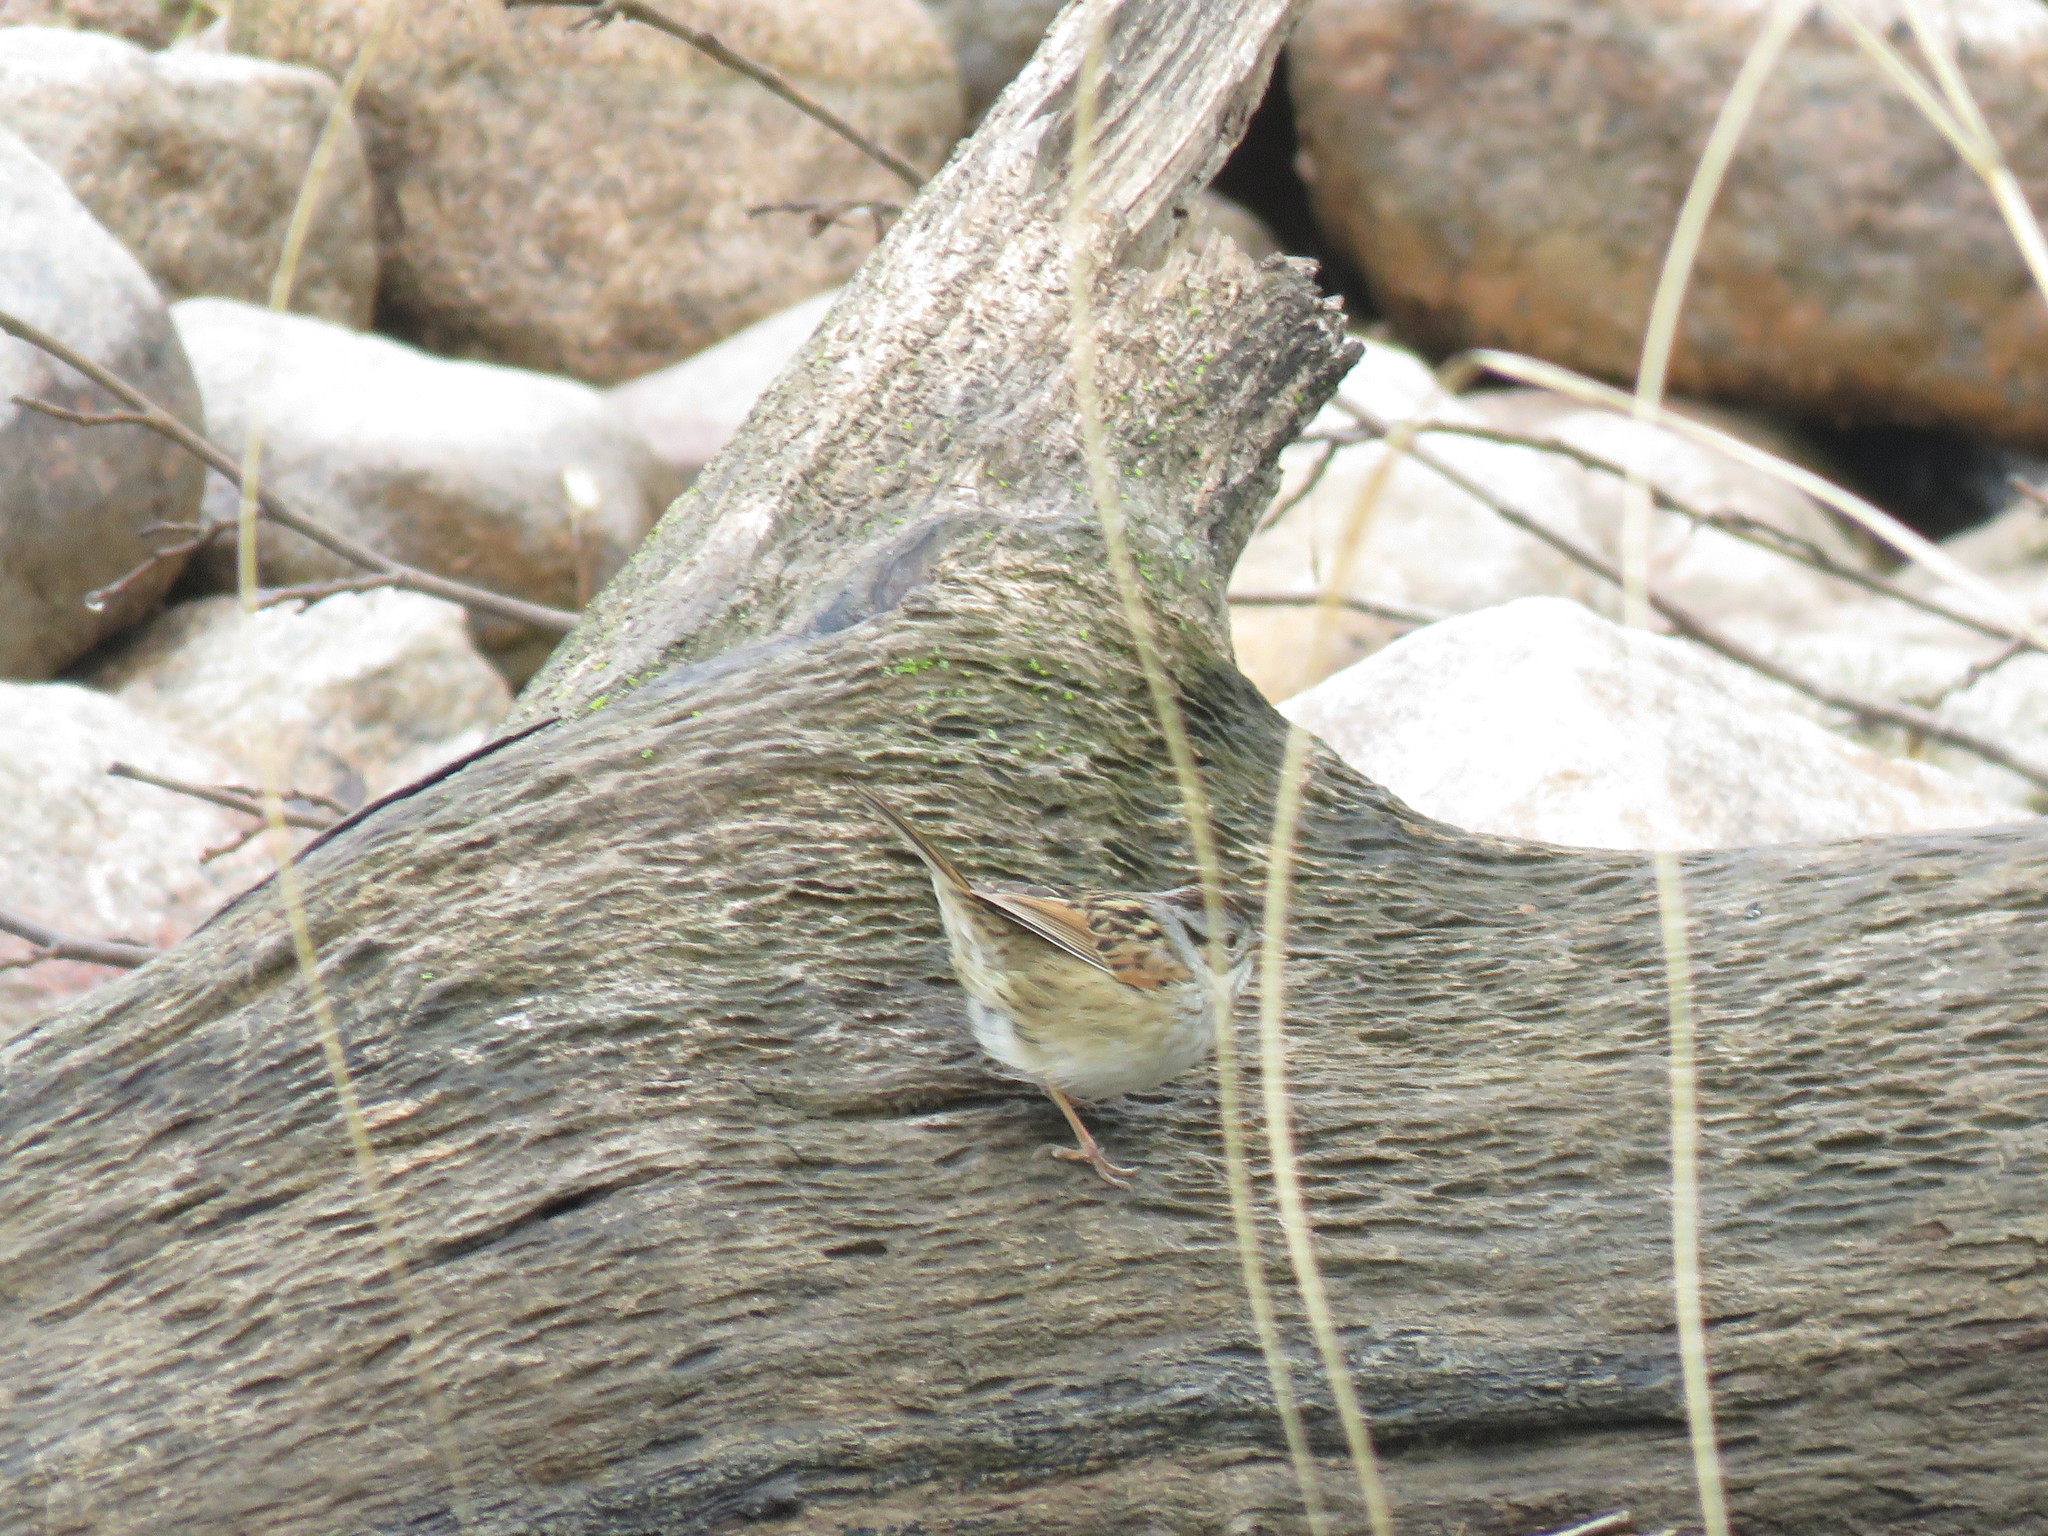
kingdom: Animalia
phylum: Chordata
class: Aves
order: Passeriformes
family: Passerellidae
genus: Melospiza
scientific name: Melospiza georgiana
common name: Swamp sparrow
